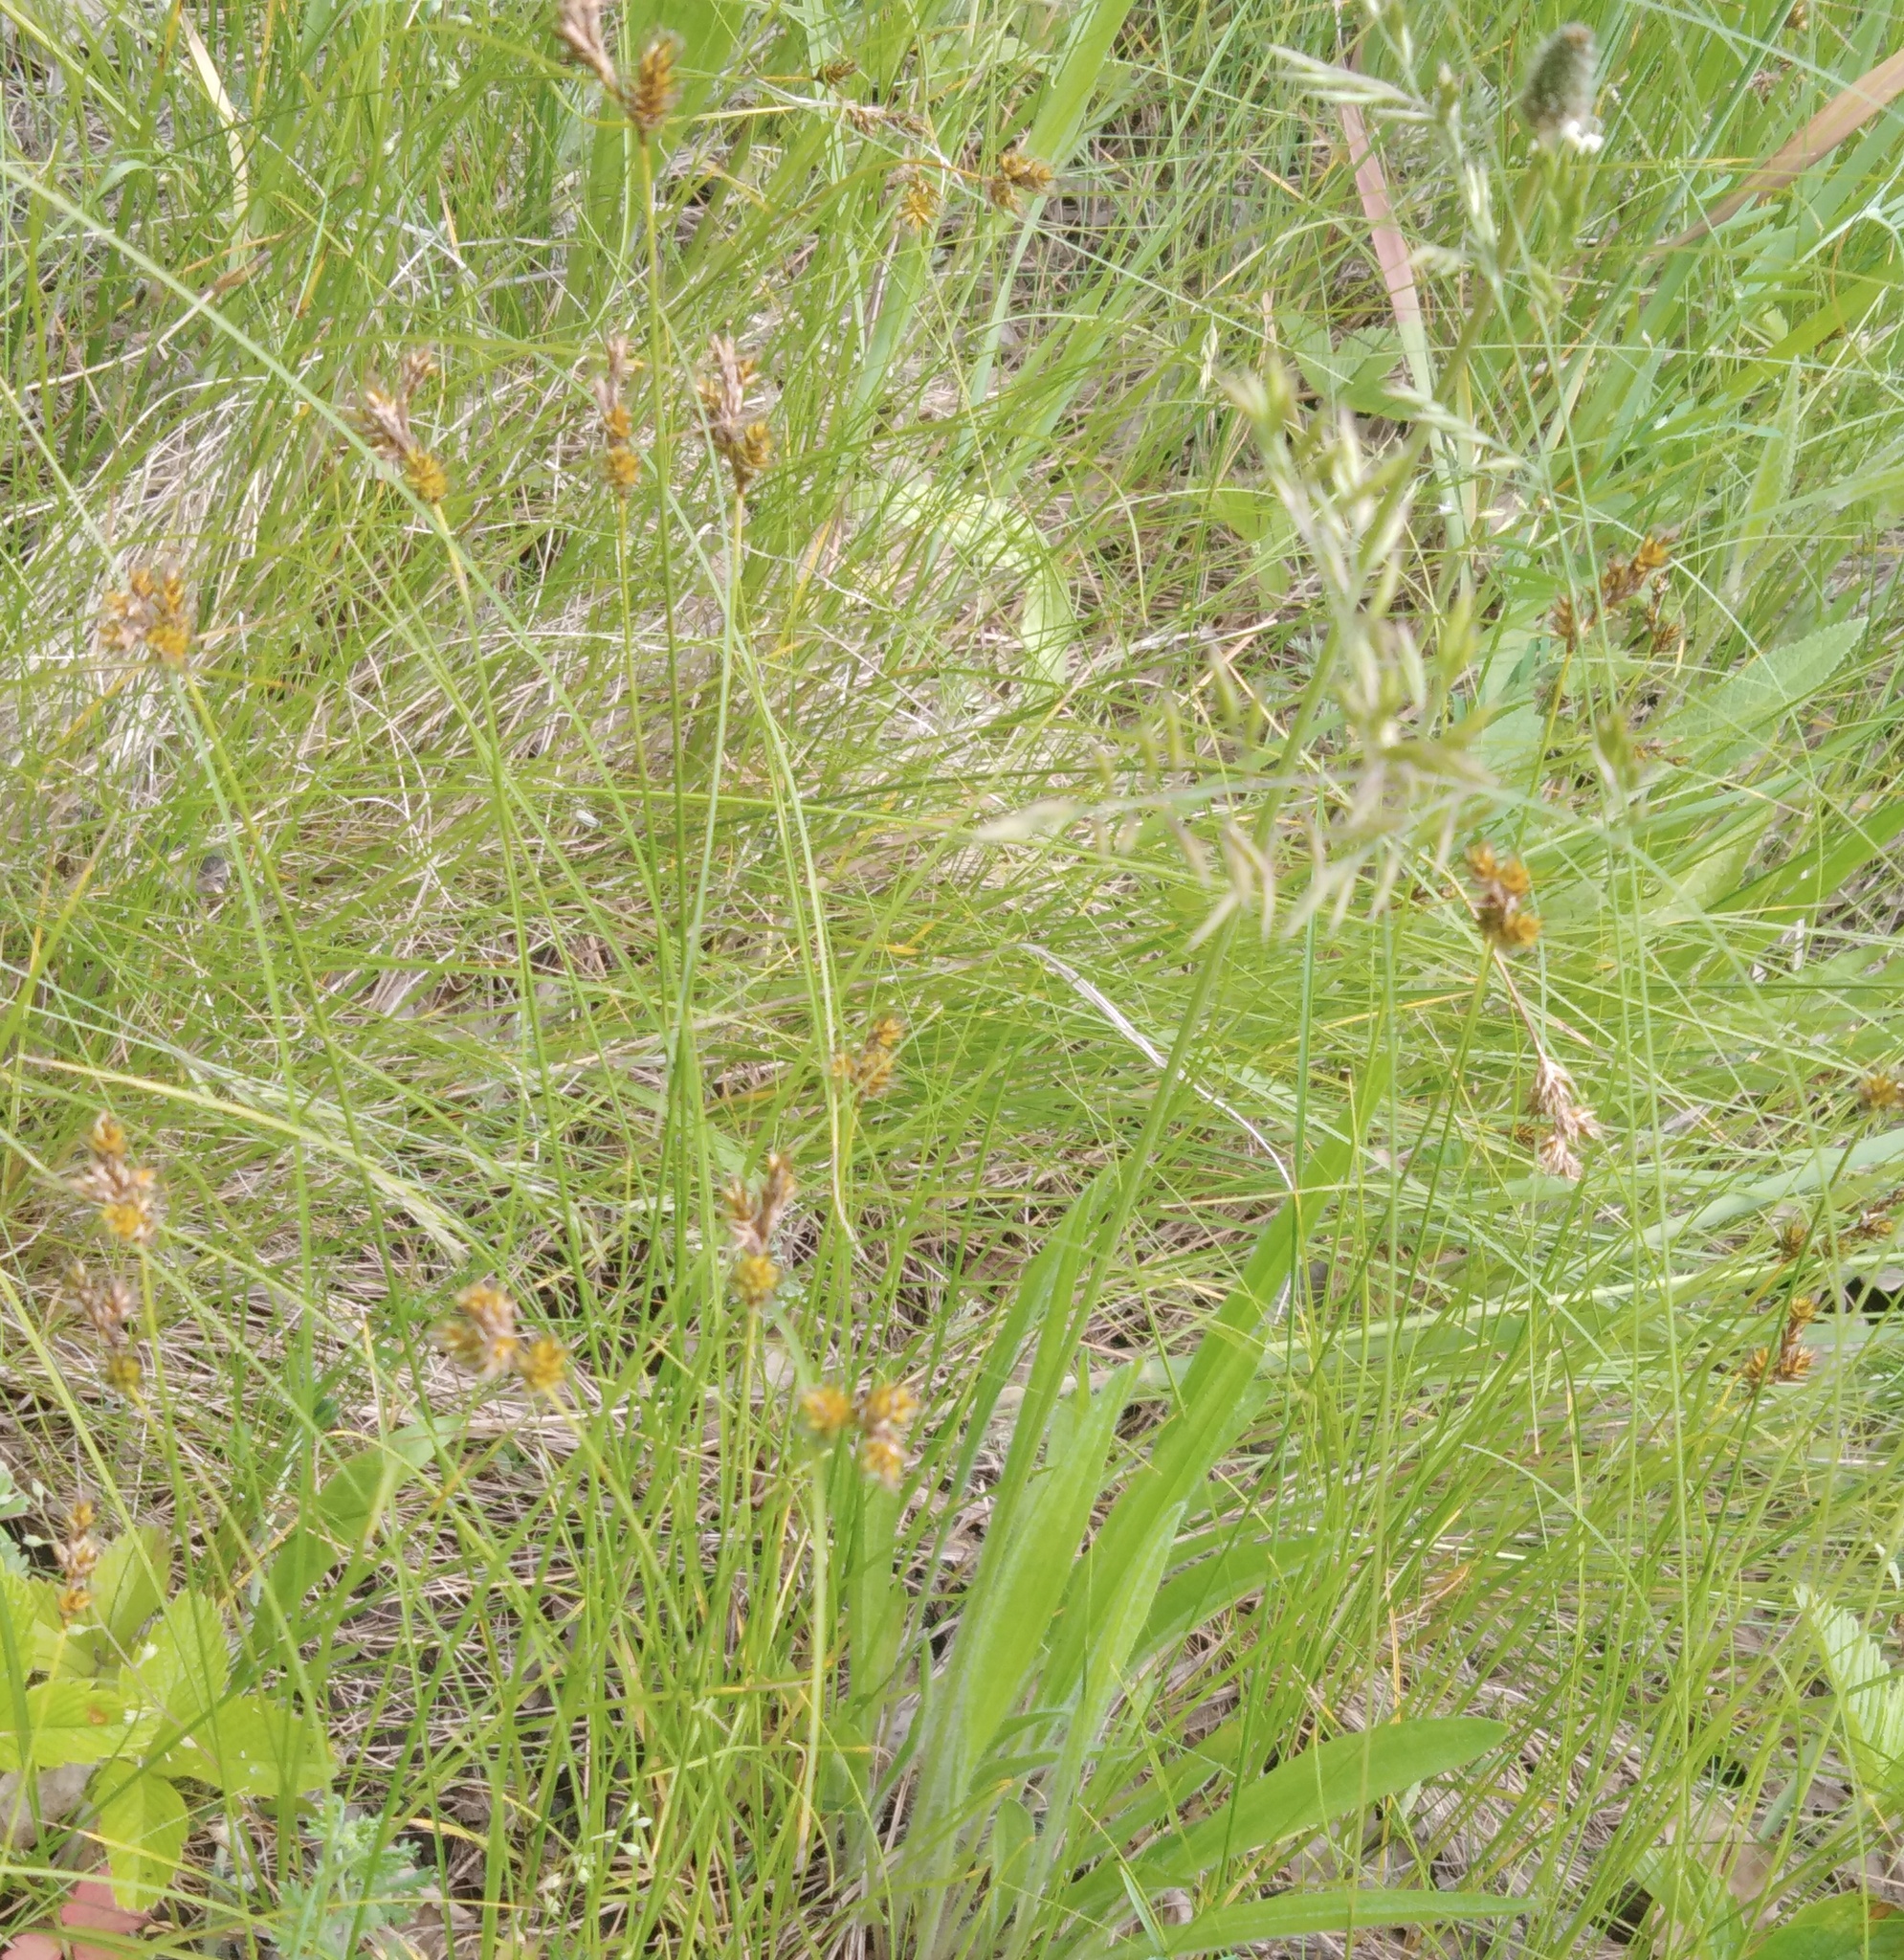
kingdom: Plantae
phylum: Tracheophyta
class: Liliopsida
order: Poales
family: Cyperaceae
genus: Carex
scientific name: Carex praecox
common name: Early sedge
